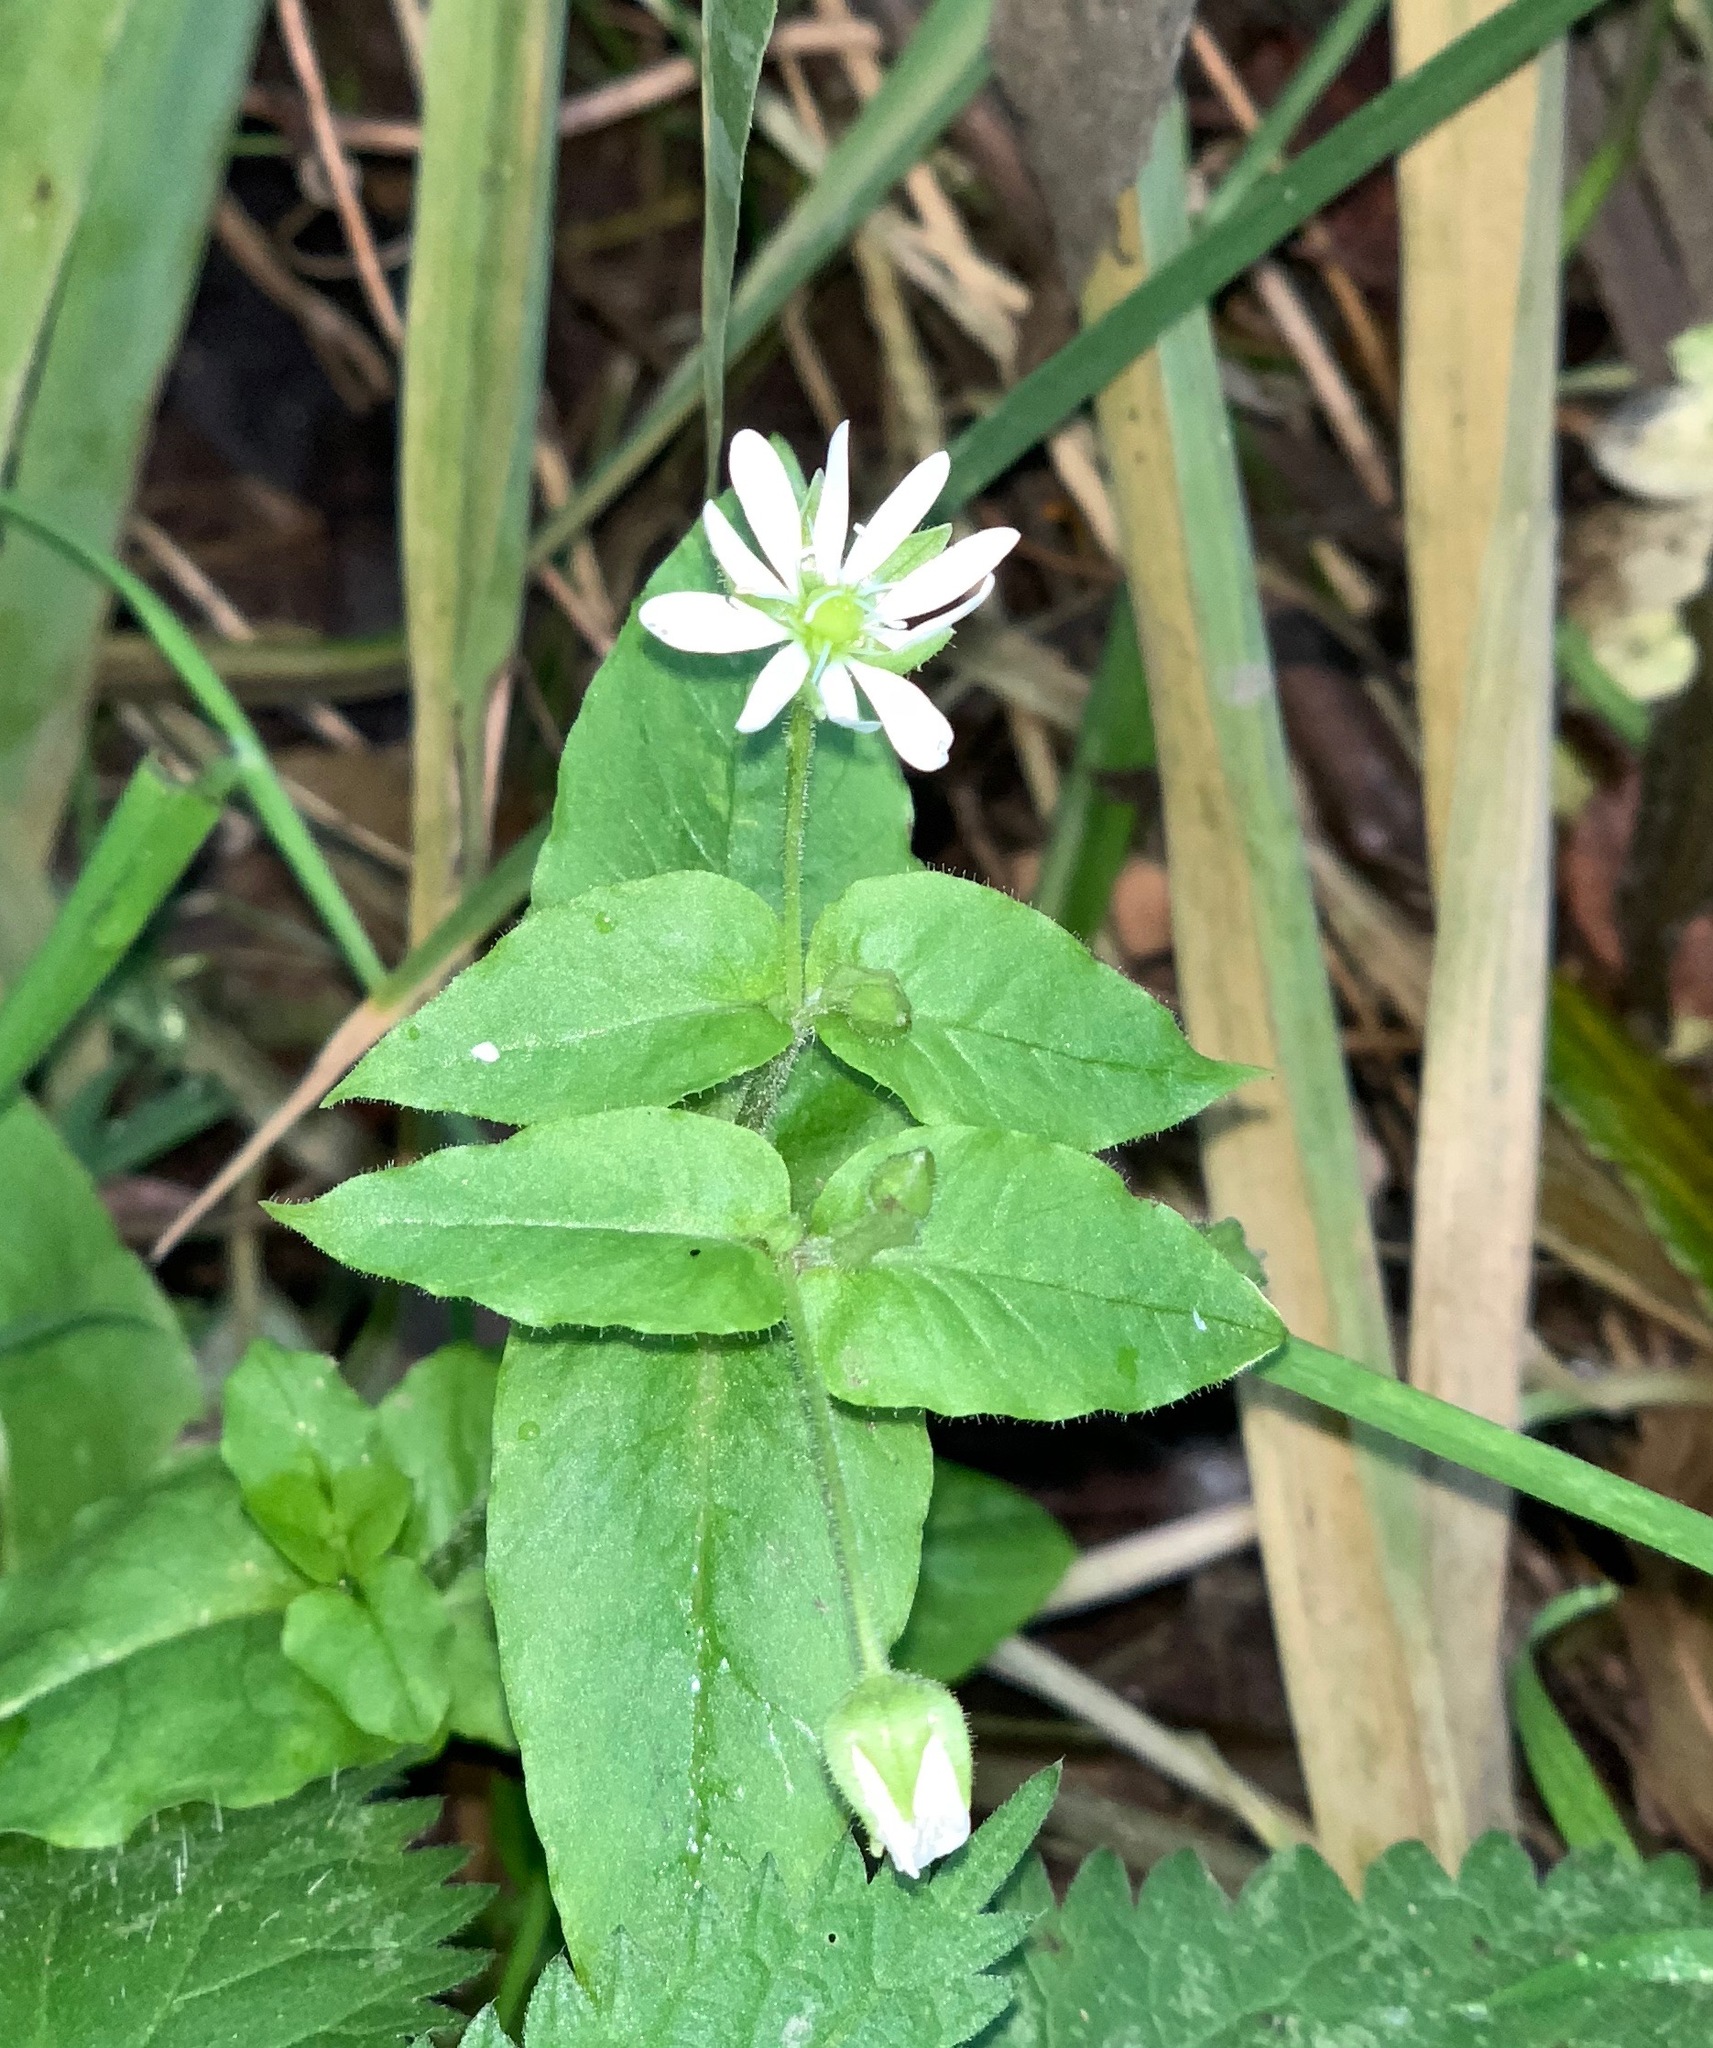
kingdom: Plantae
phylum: Tracheophyta
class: Magnoliopsida
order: Caryophyllales
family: Caryophyllaceae
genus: Stellaria
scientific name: Stellaria aquatica
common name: Water chickweed
